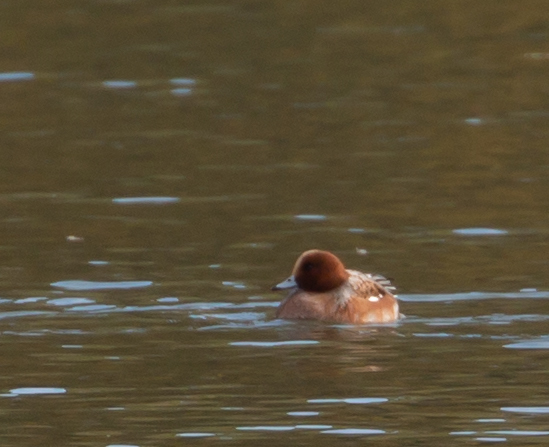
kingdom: Animalia
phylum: Chordata
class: Aves
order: Anseriformes
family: Anatidae
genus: Mareca
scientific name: Mareca penelope
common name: Eurasian wigeon
